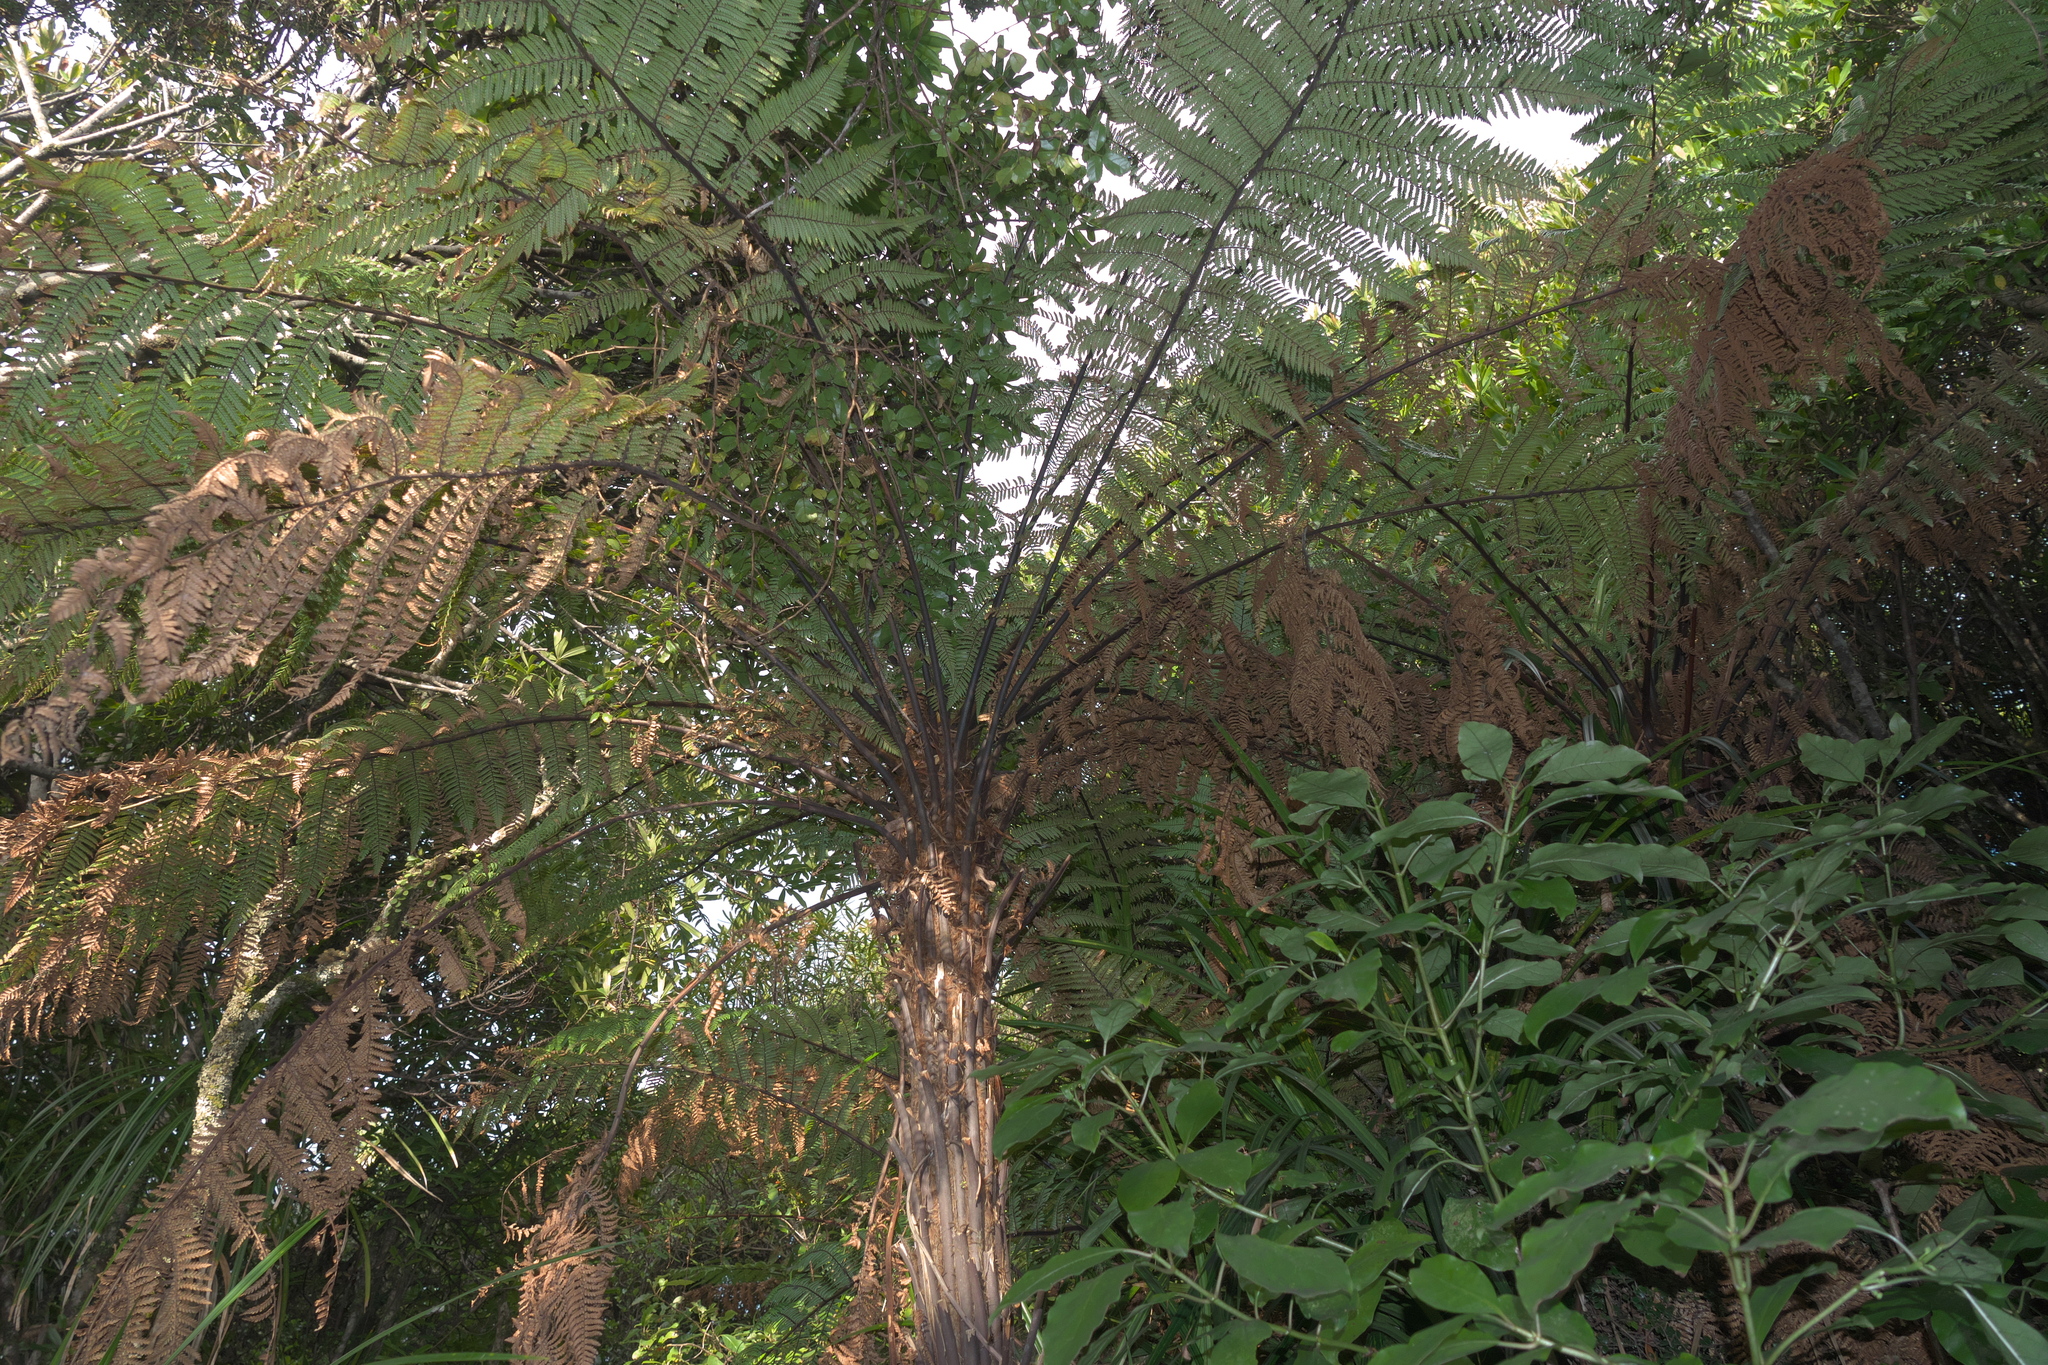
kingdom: Plantae
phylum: Tracheophyta
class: Polypodiopsida
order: Cyatheales
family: Cyatheaceae
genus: Cyathea
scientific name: Cyathea cunninghamii
